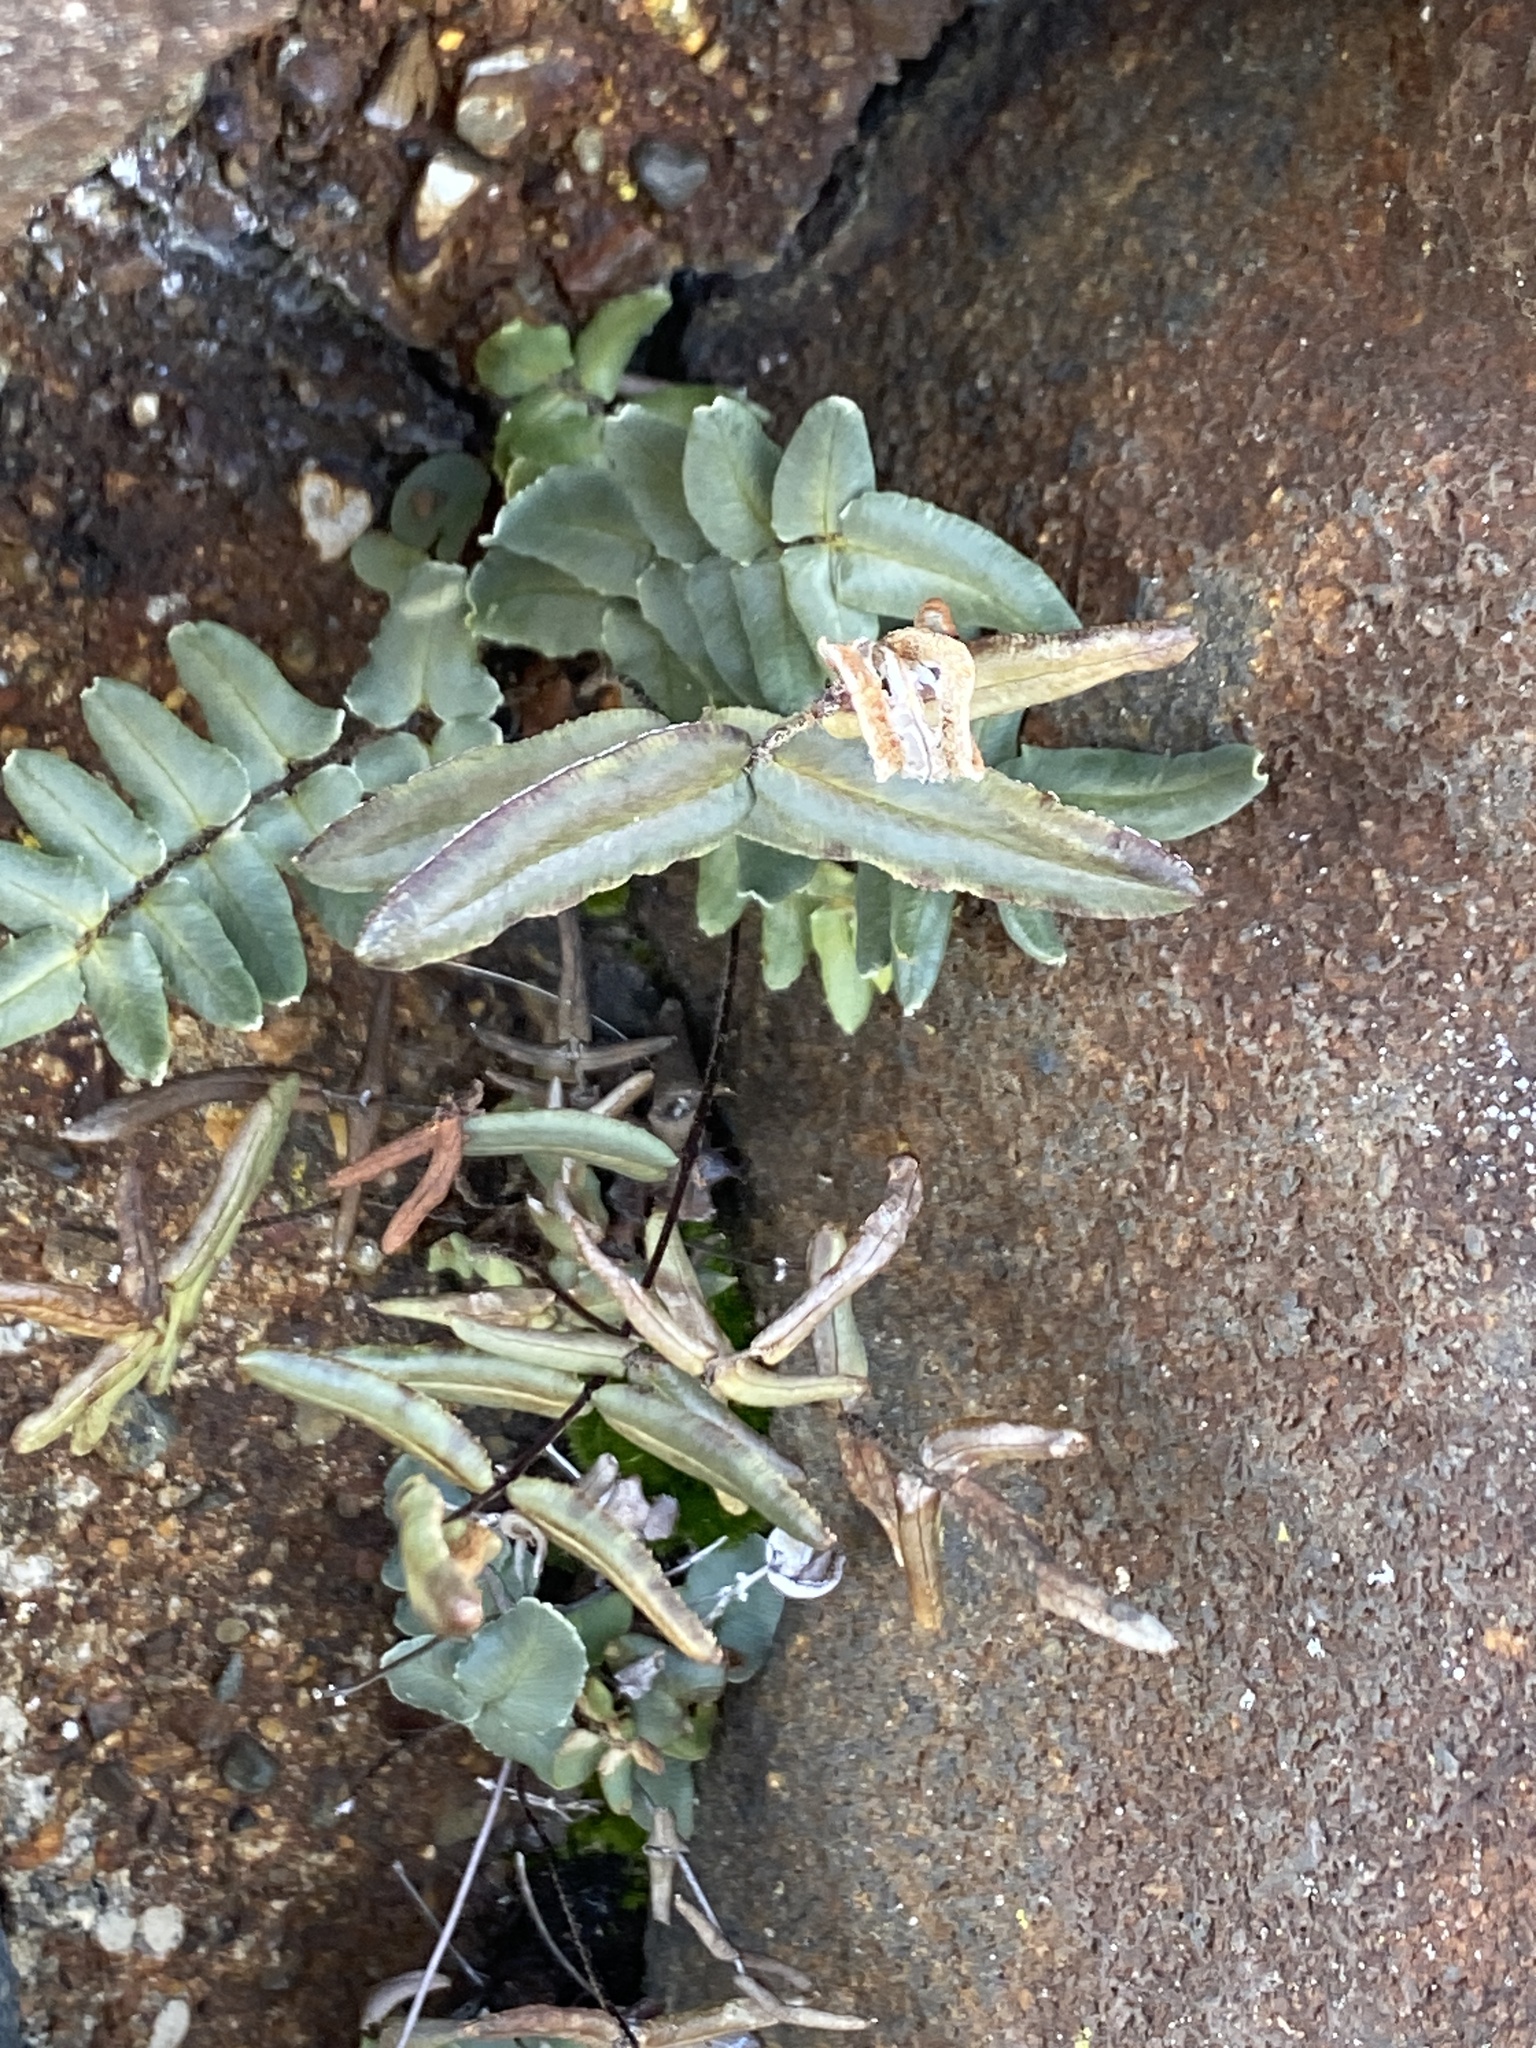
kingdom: Plantae
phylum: Tracheophyta
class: Polypodiopsida
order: Polypodiales
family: Pteridaceae
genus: Pellaea
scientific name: Pellaea atropurpurea
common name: Hairy cliffbrake
